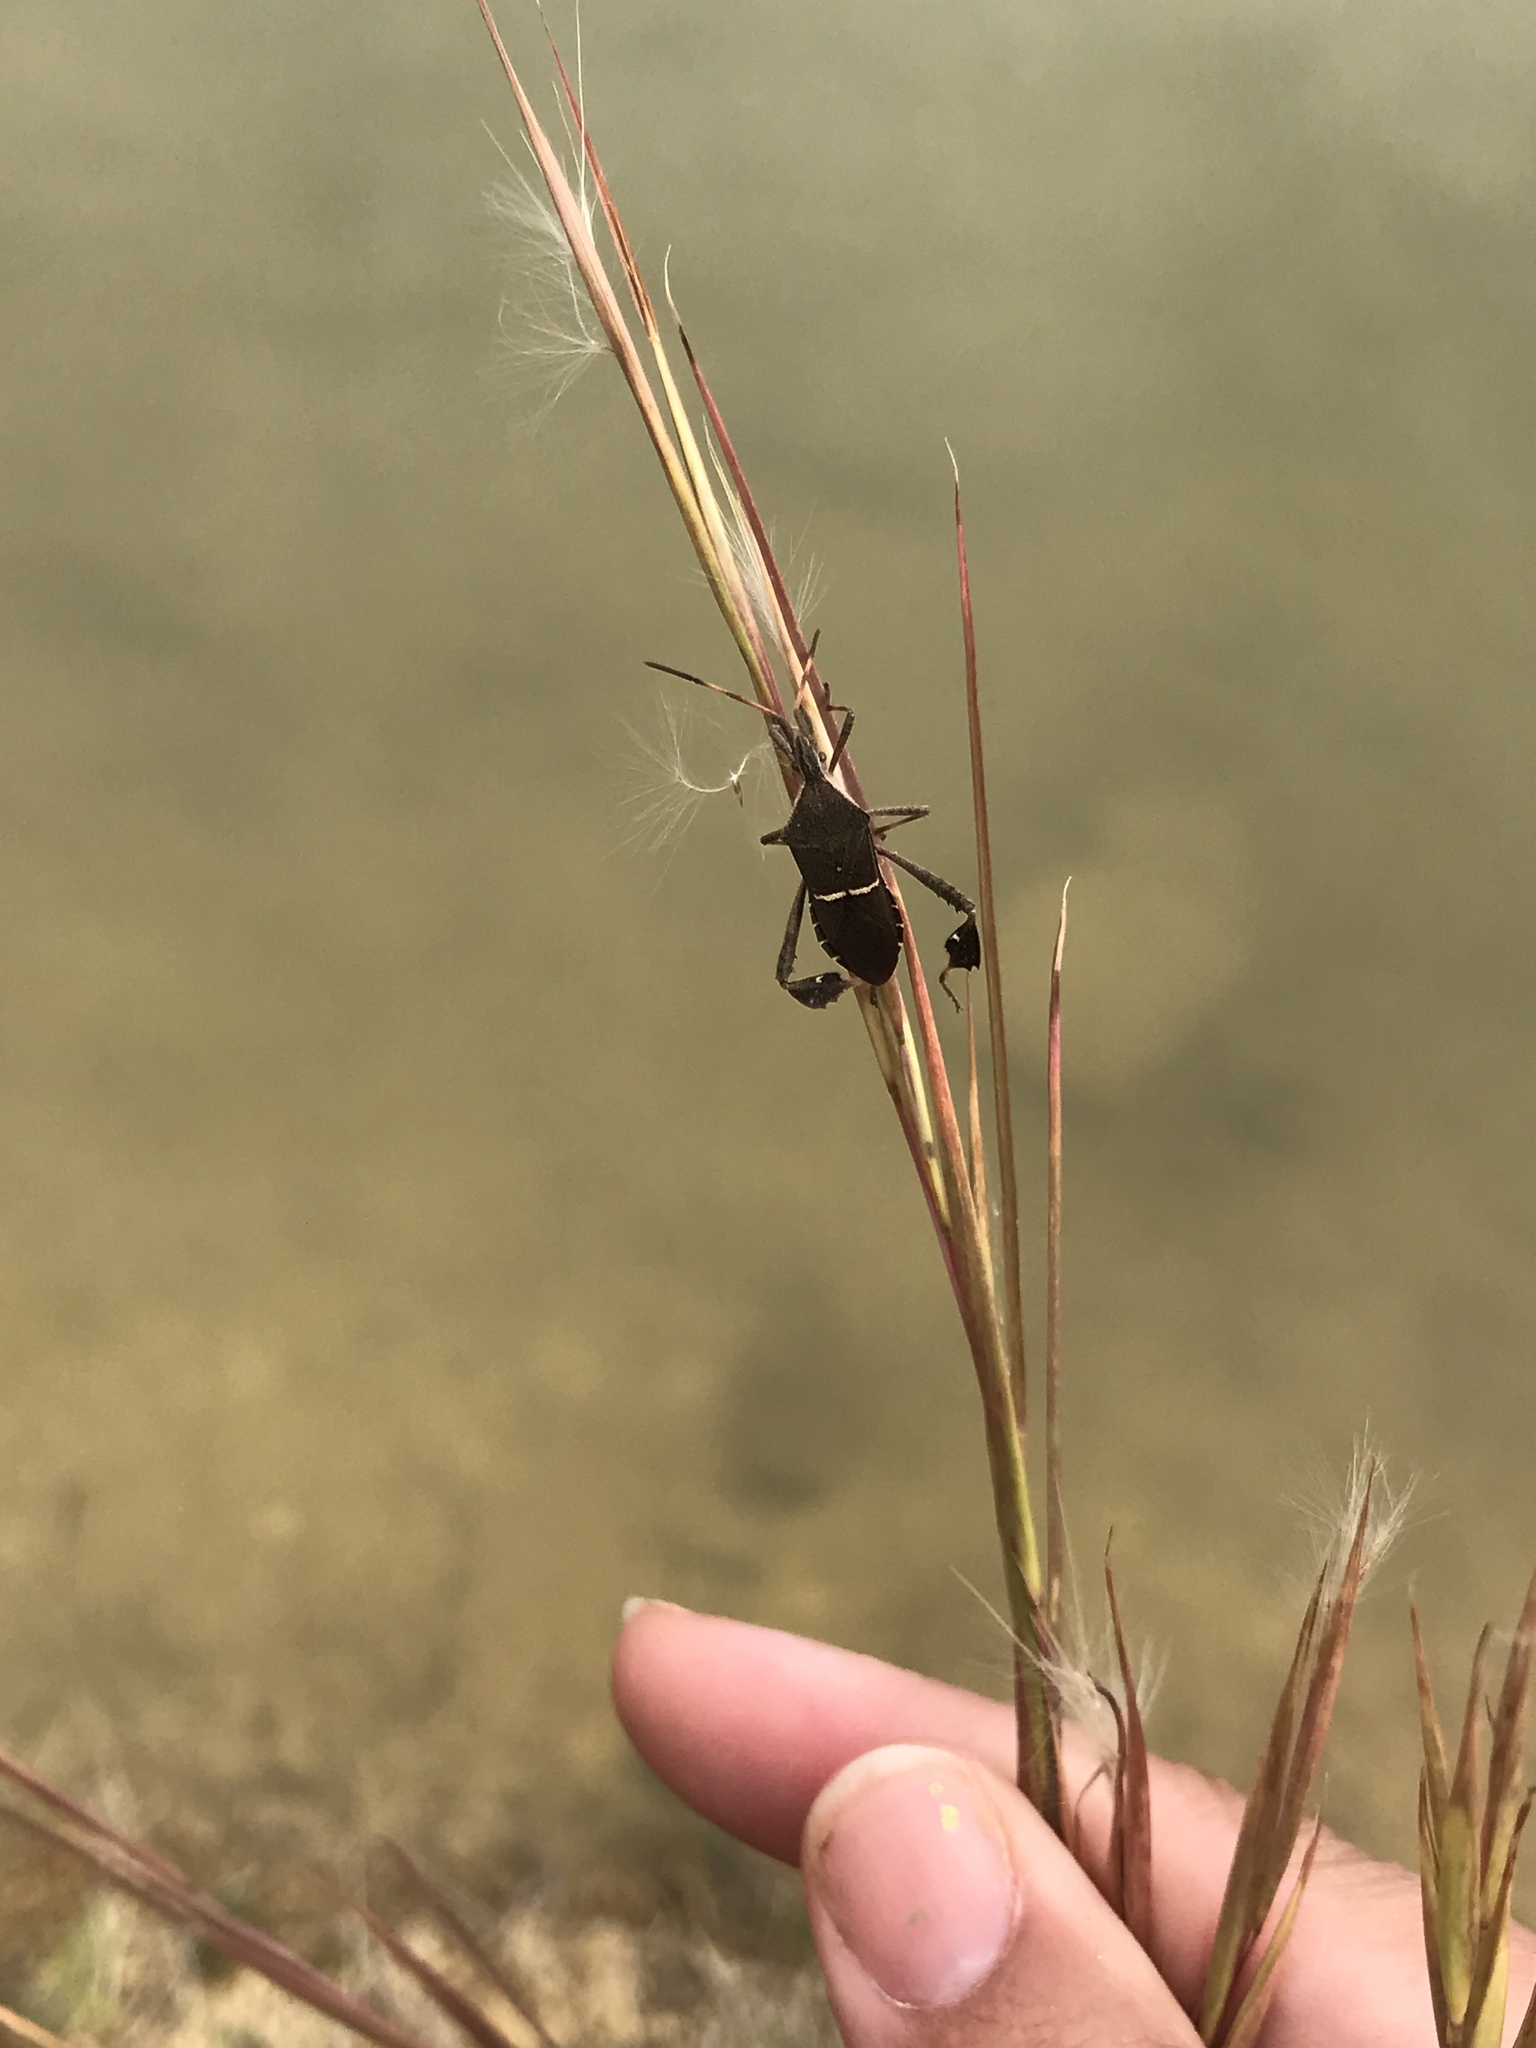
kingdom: Animalia
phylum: Arthropoda
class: Insecta
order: Hemiptera
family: Coreidae
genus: Leptoglossus
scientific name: Leptoglossus phyllopus
